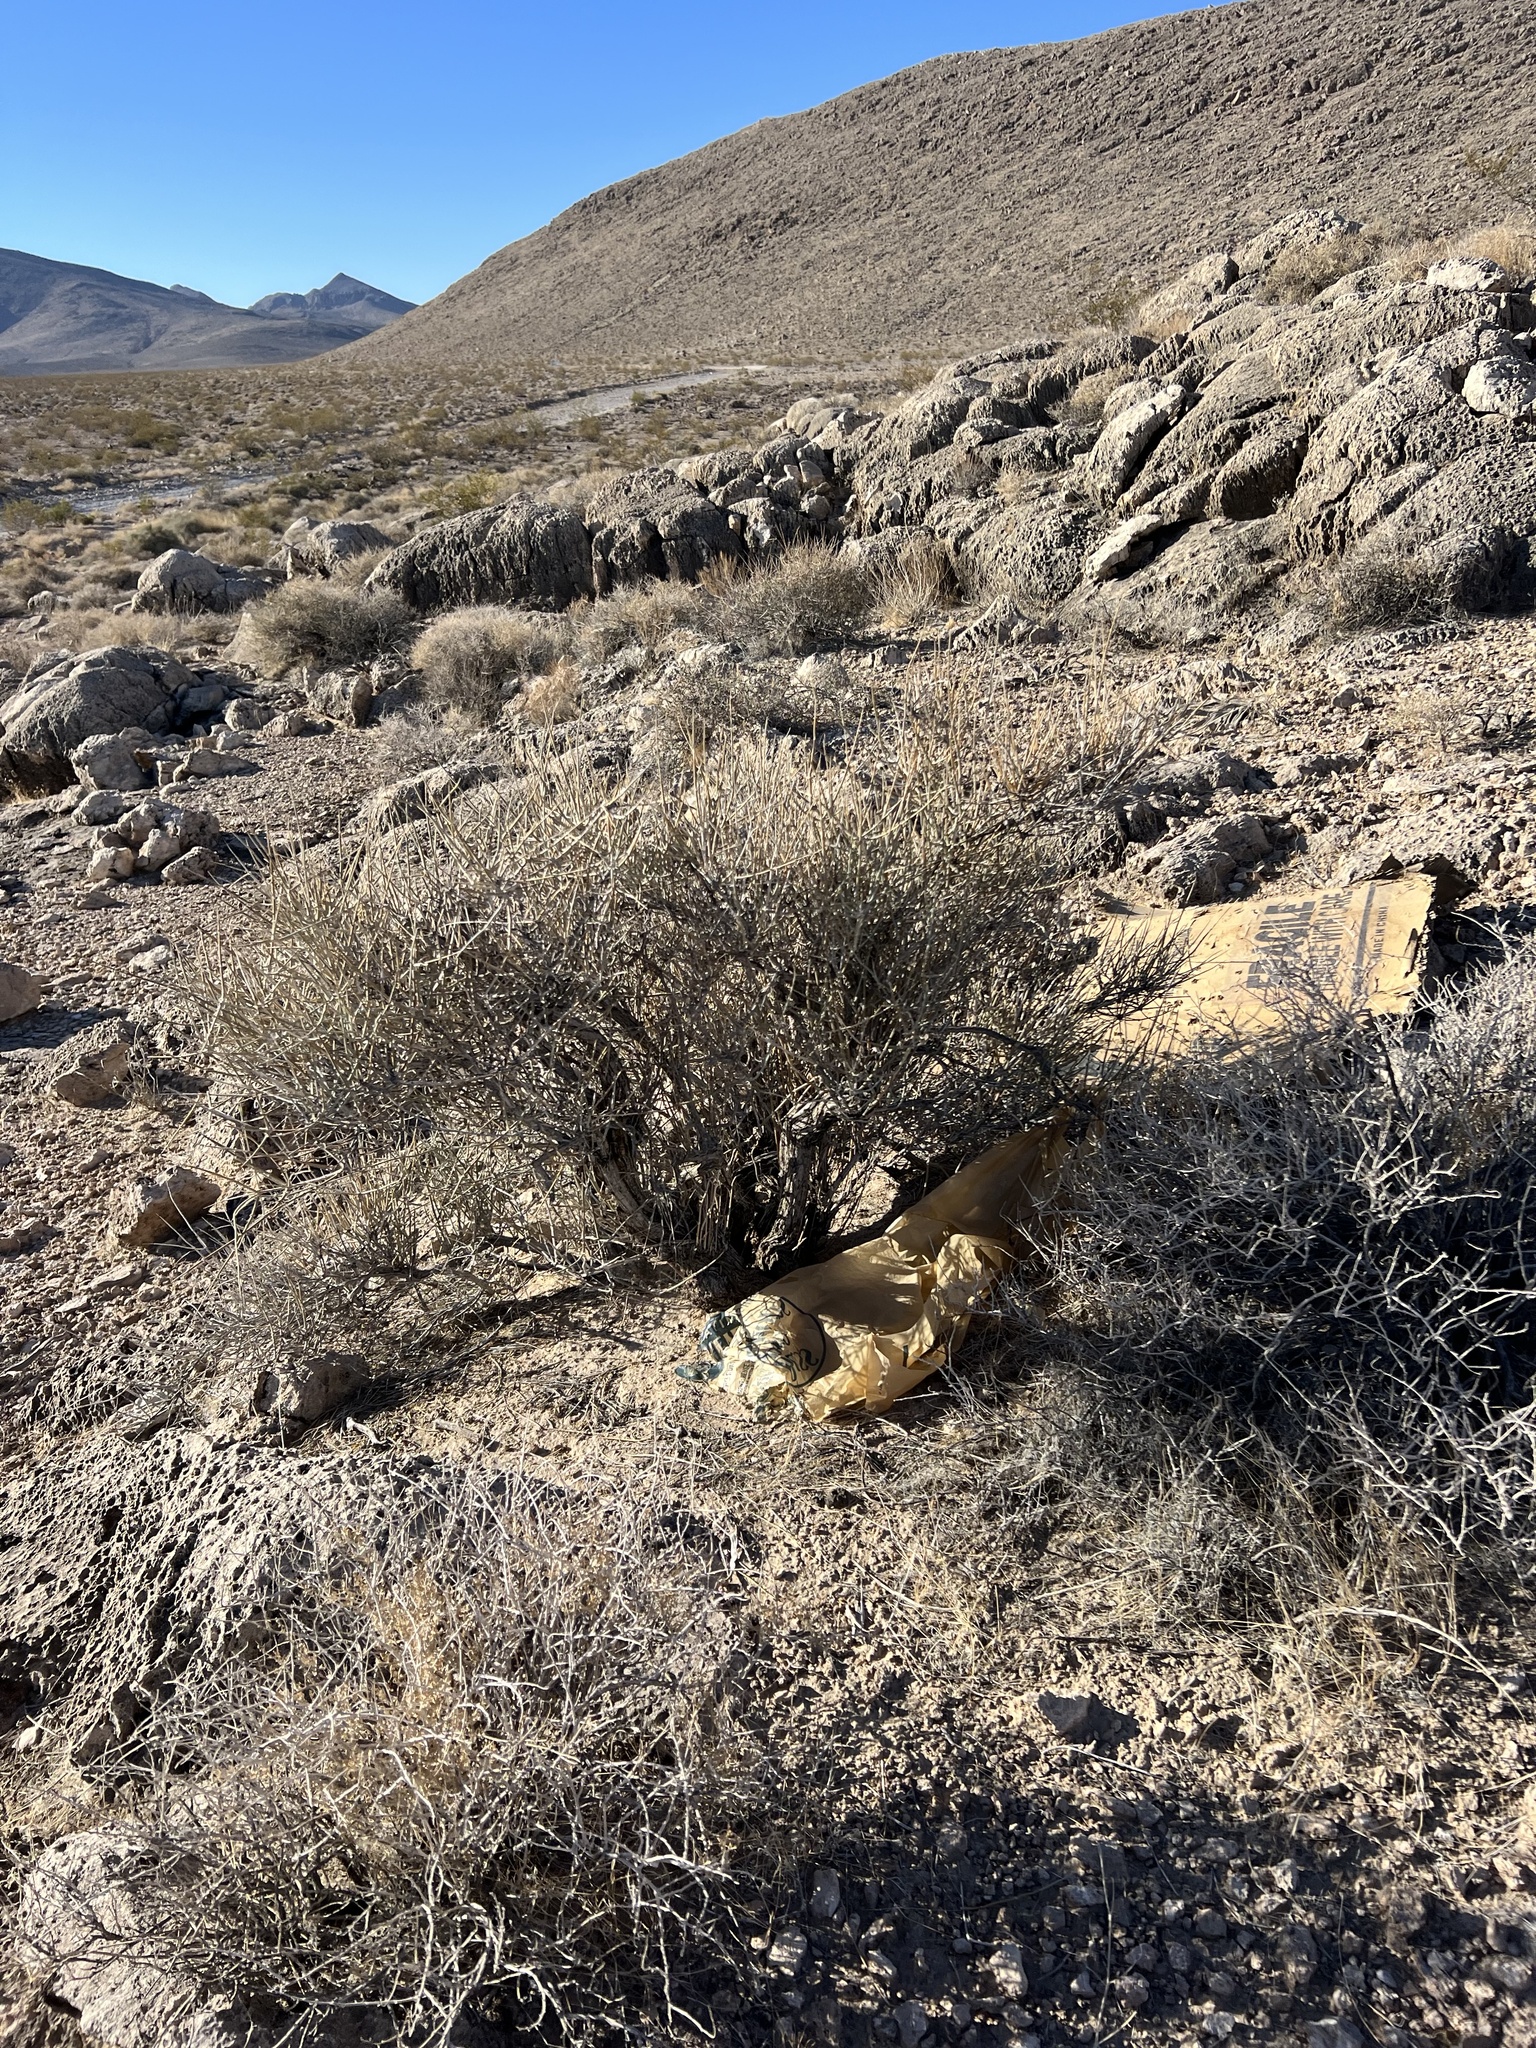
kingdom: Plantae
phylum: Tracheophyta
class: Gnetopsida
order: Ephedrales
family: Ephedraceae
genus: Ephedra
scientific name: Ephedra nevadensis
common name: Gray ephedra
